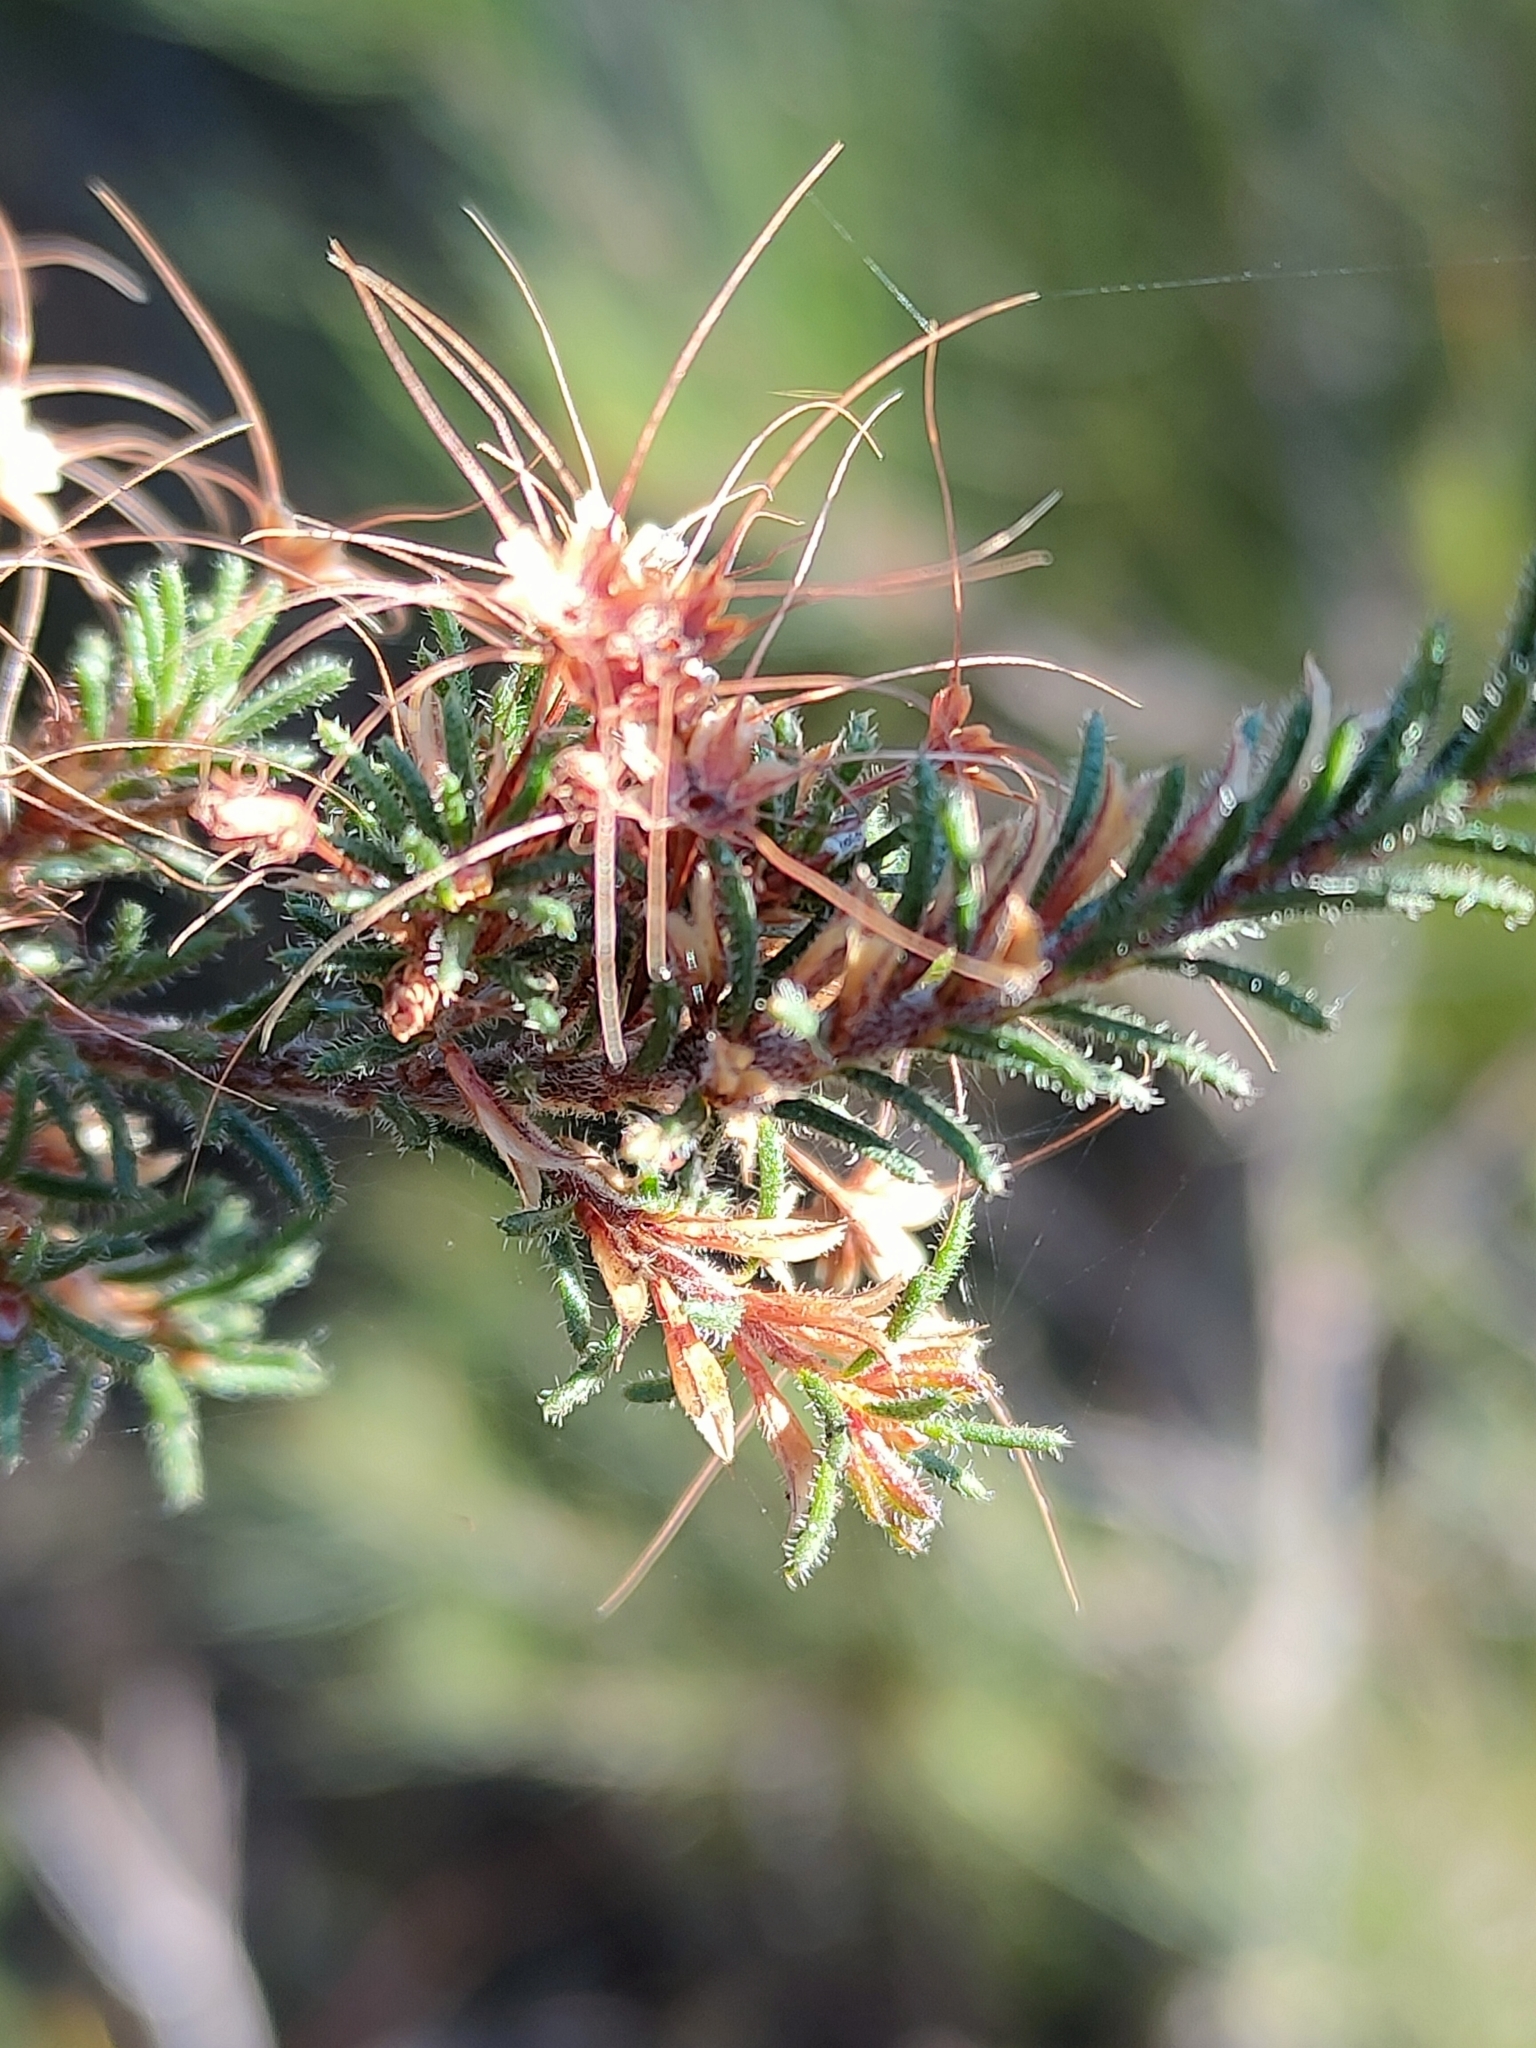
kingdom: Plantae
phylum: Tracheophyta
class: Magnoliopsida
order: Myrtales
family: Myrtaceae
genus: Calytrix
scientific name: Calytrix tetragona
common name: Common fringe myrtle
